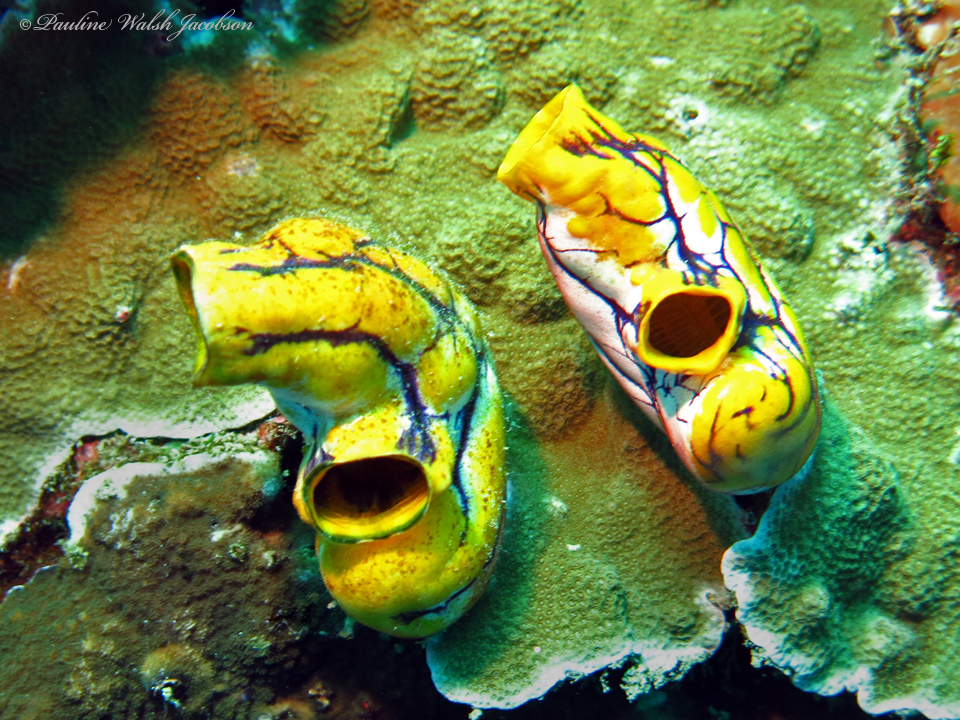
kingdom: Animalia
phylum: Chordata
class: Ascidiacea
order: Stolidobranchia
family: Styelidae
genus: Polycarpa
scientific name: Polycarpa aurata
